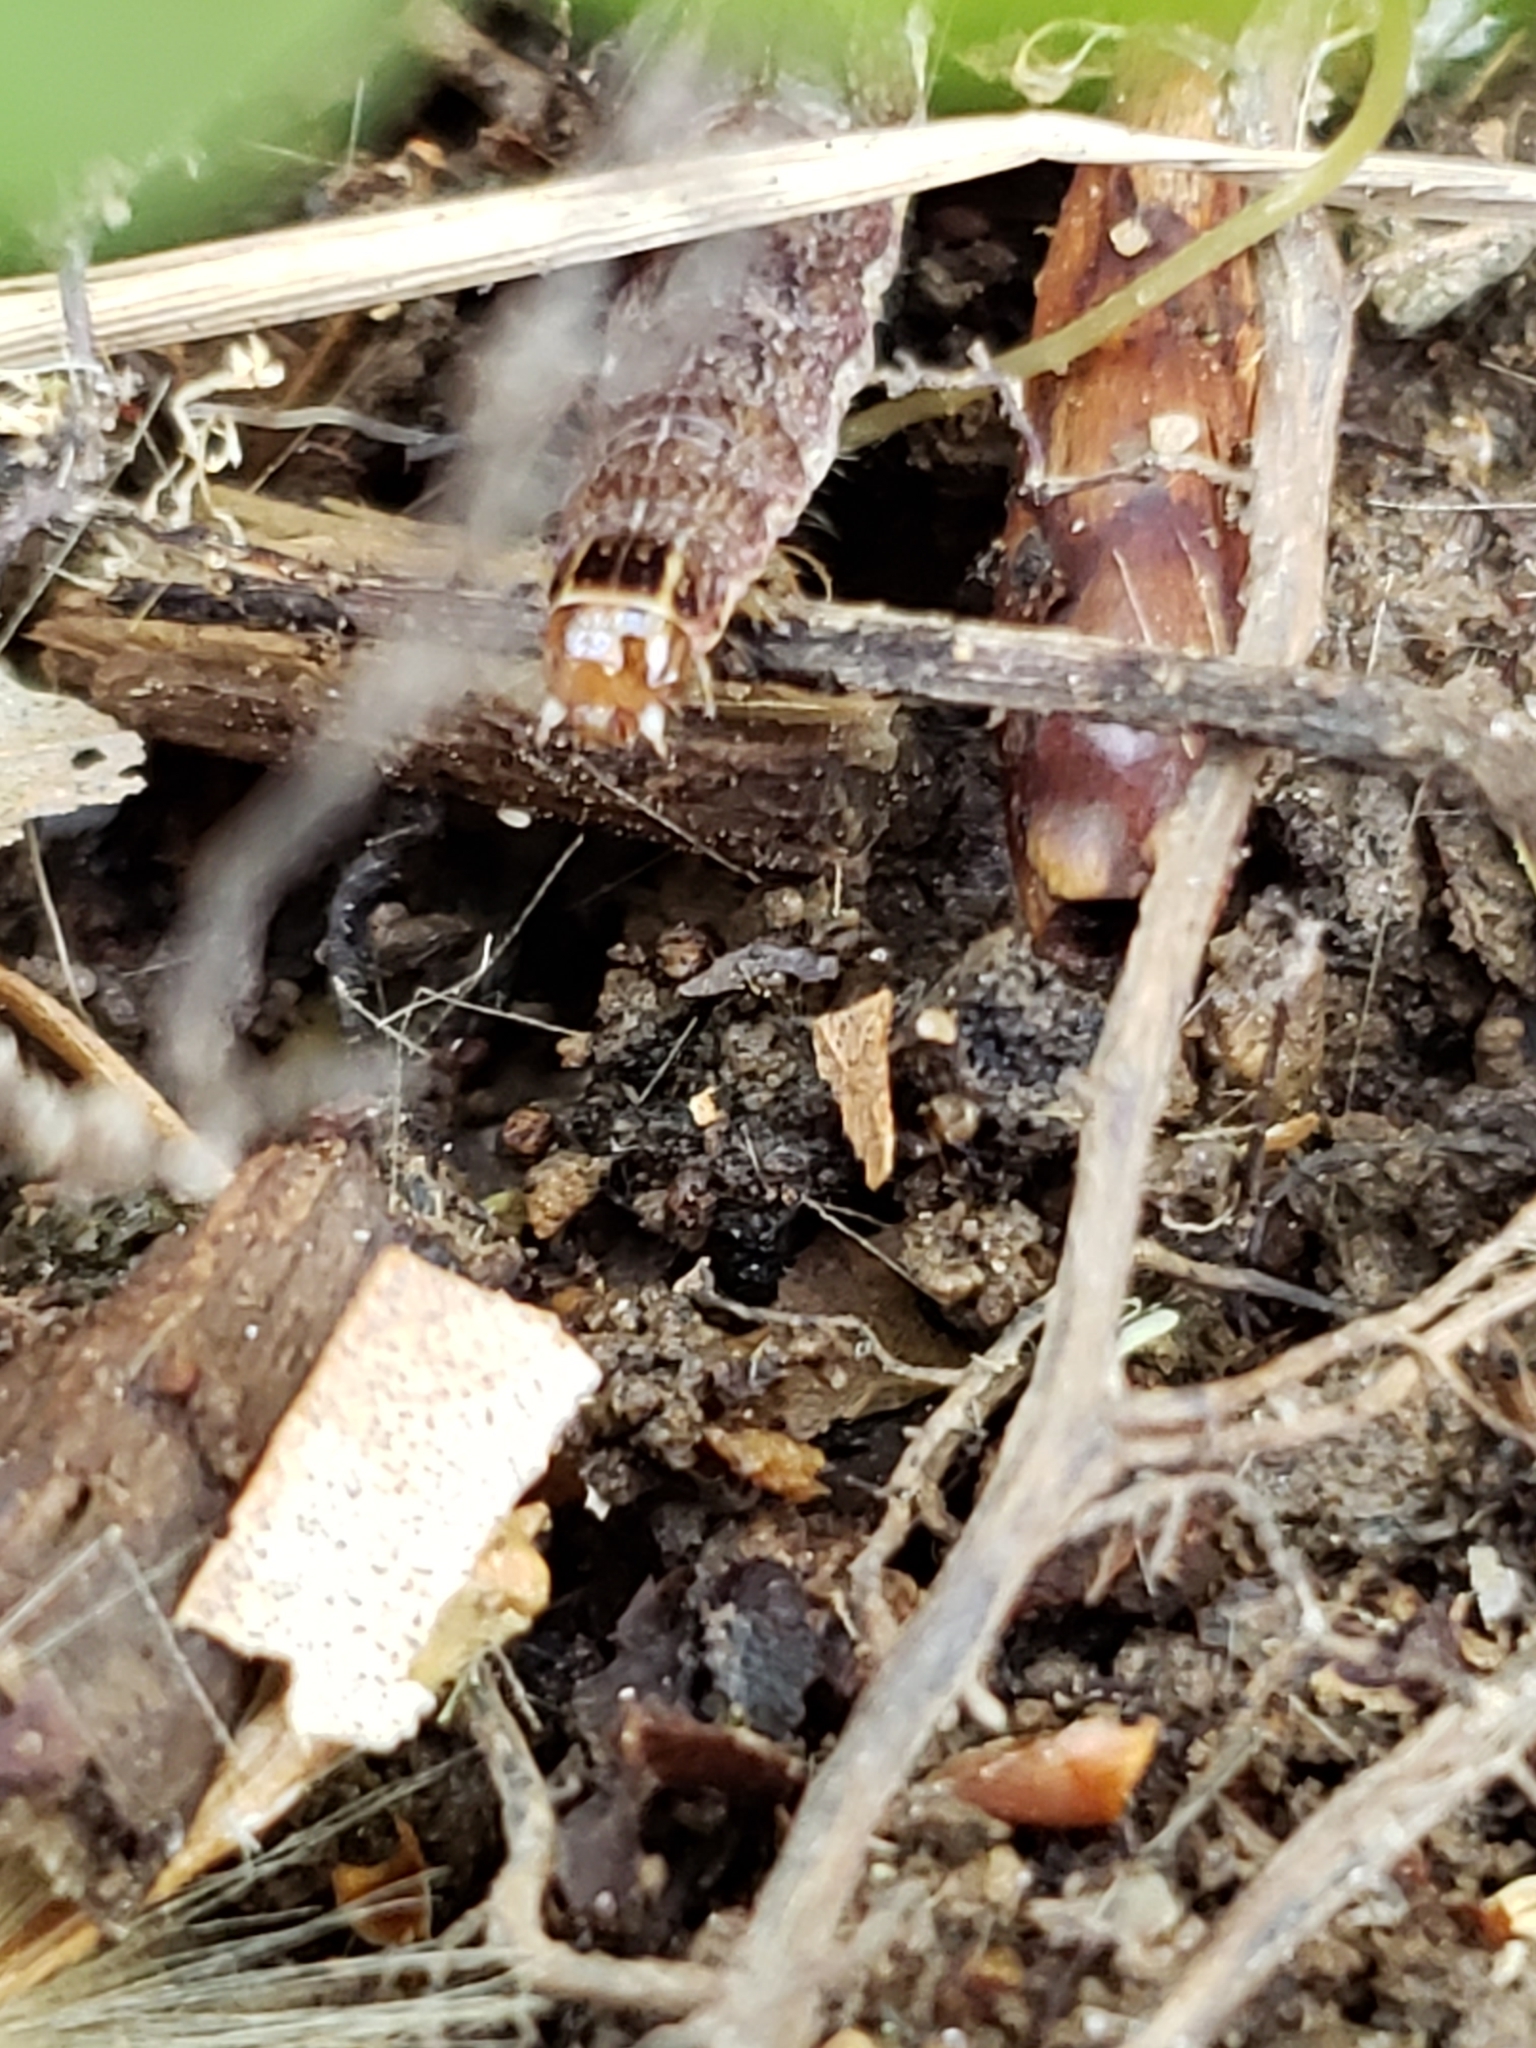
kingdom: Animalia
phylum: Arthropoda
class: Insecta
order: Lepidoptera
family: Noctuidae
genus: Agrochola
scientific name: Agrochola bicolorago
